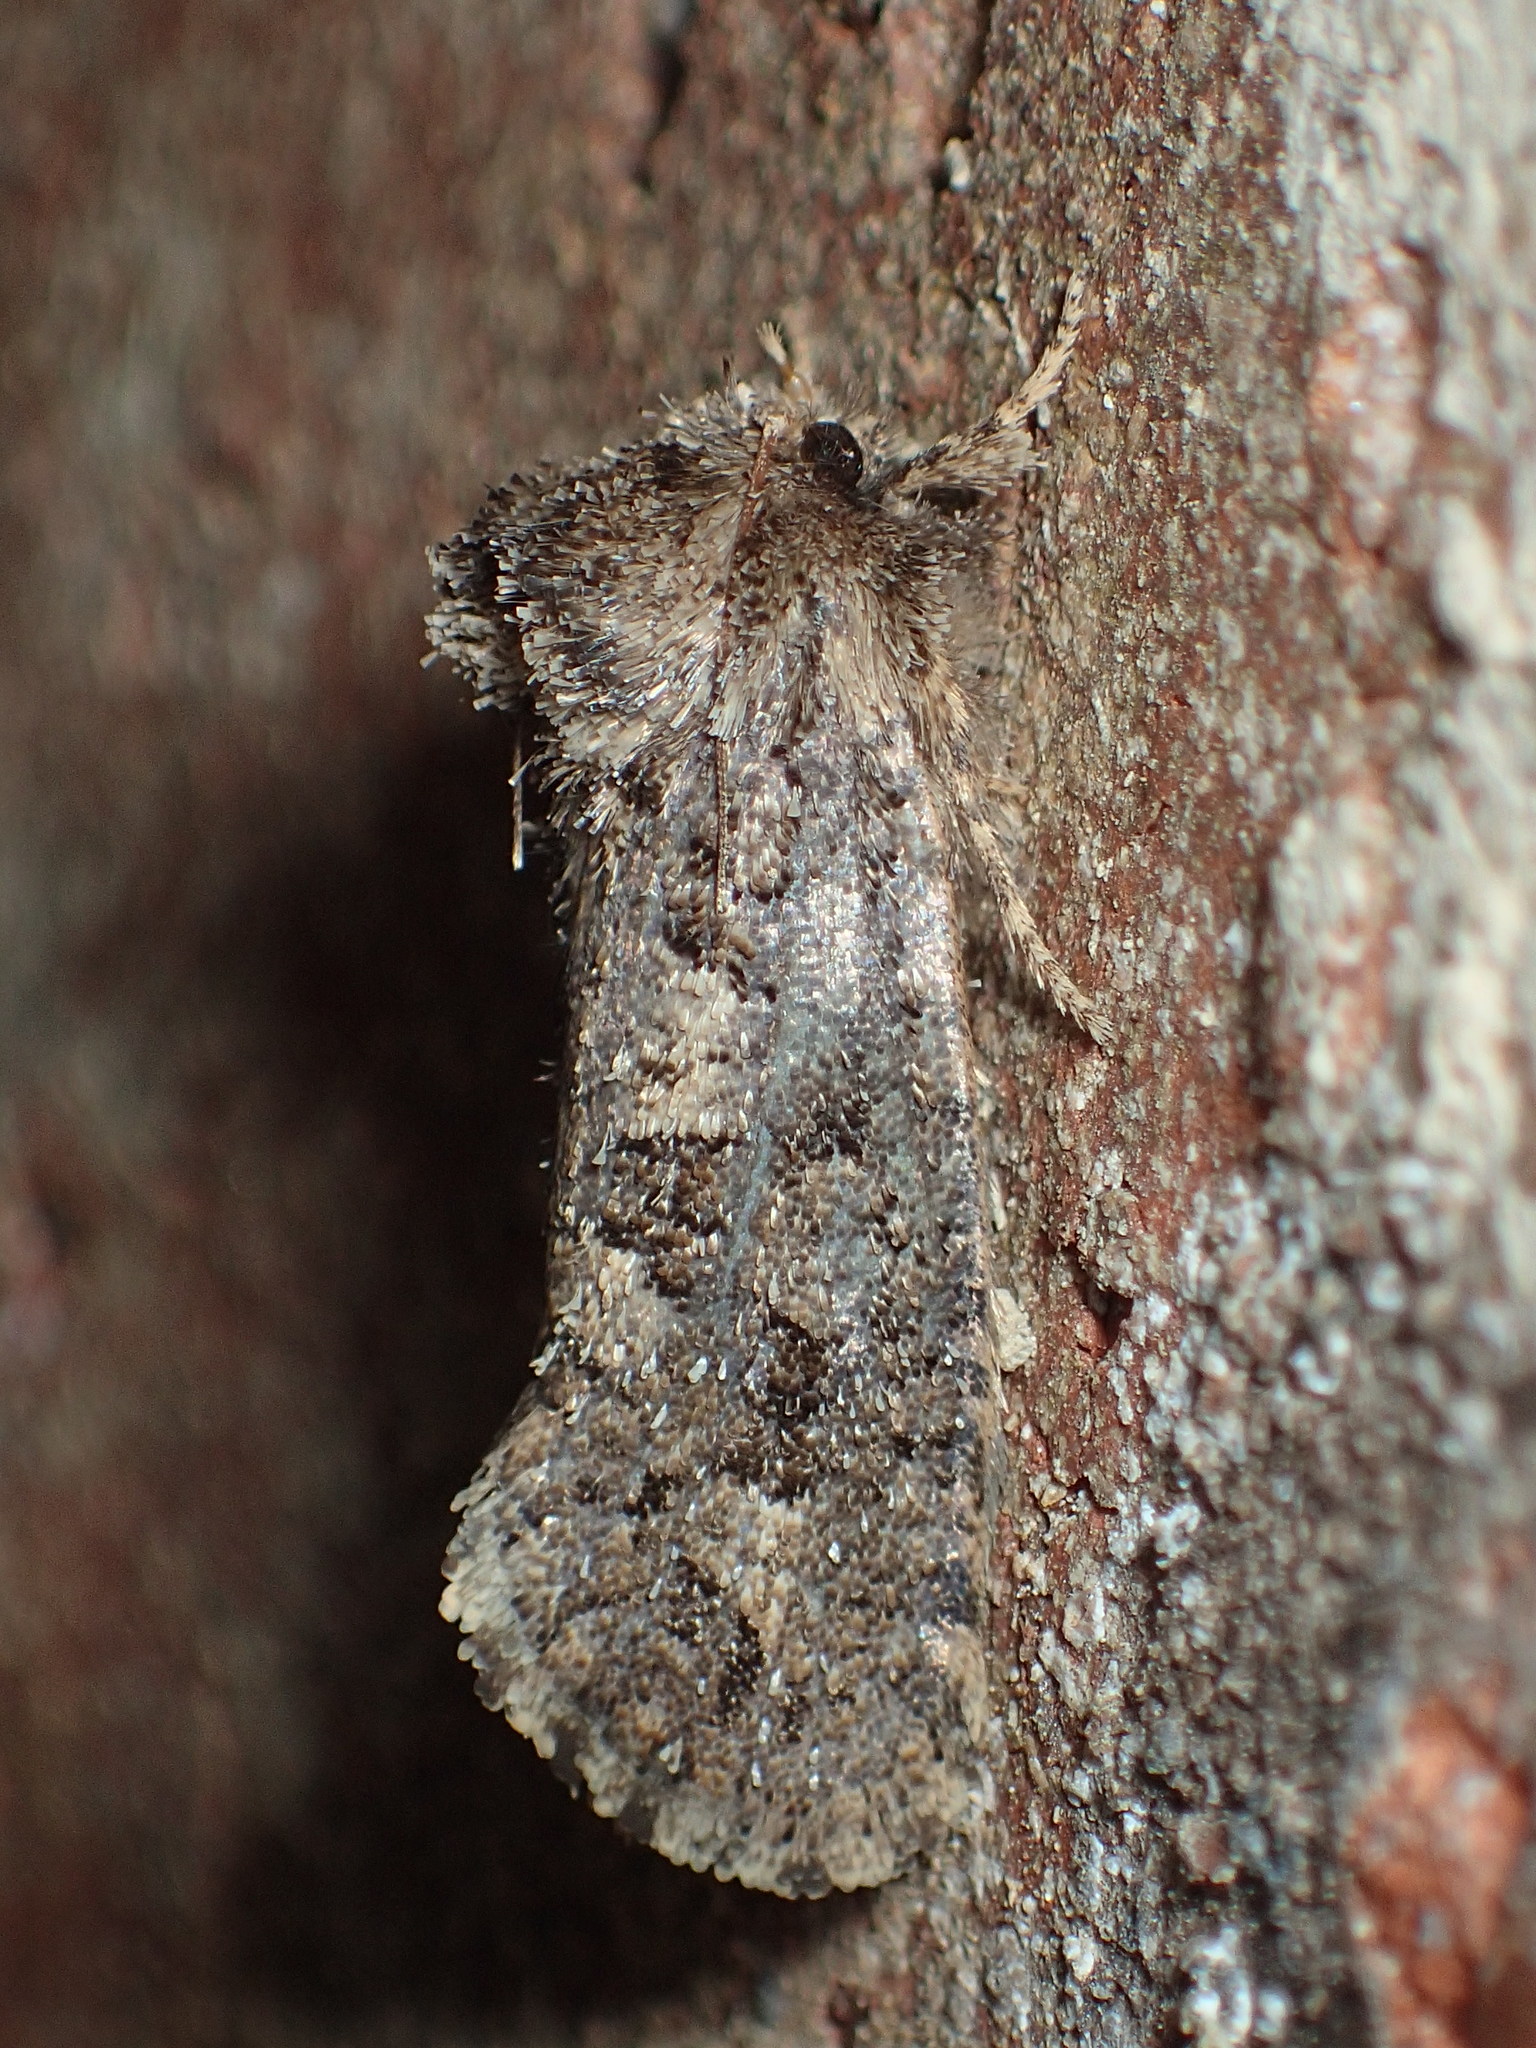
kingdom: Animalia
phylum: Arthropoda
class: Insecta
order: Lepidoptera
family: Tineidae
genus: Acrolophus
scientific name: Acrolophus arcanella
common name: Arcane grass tubeworm moth
